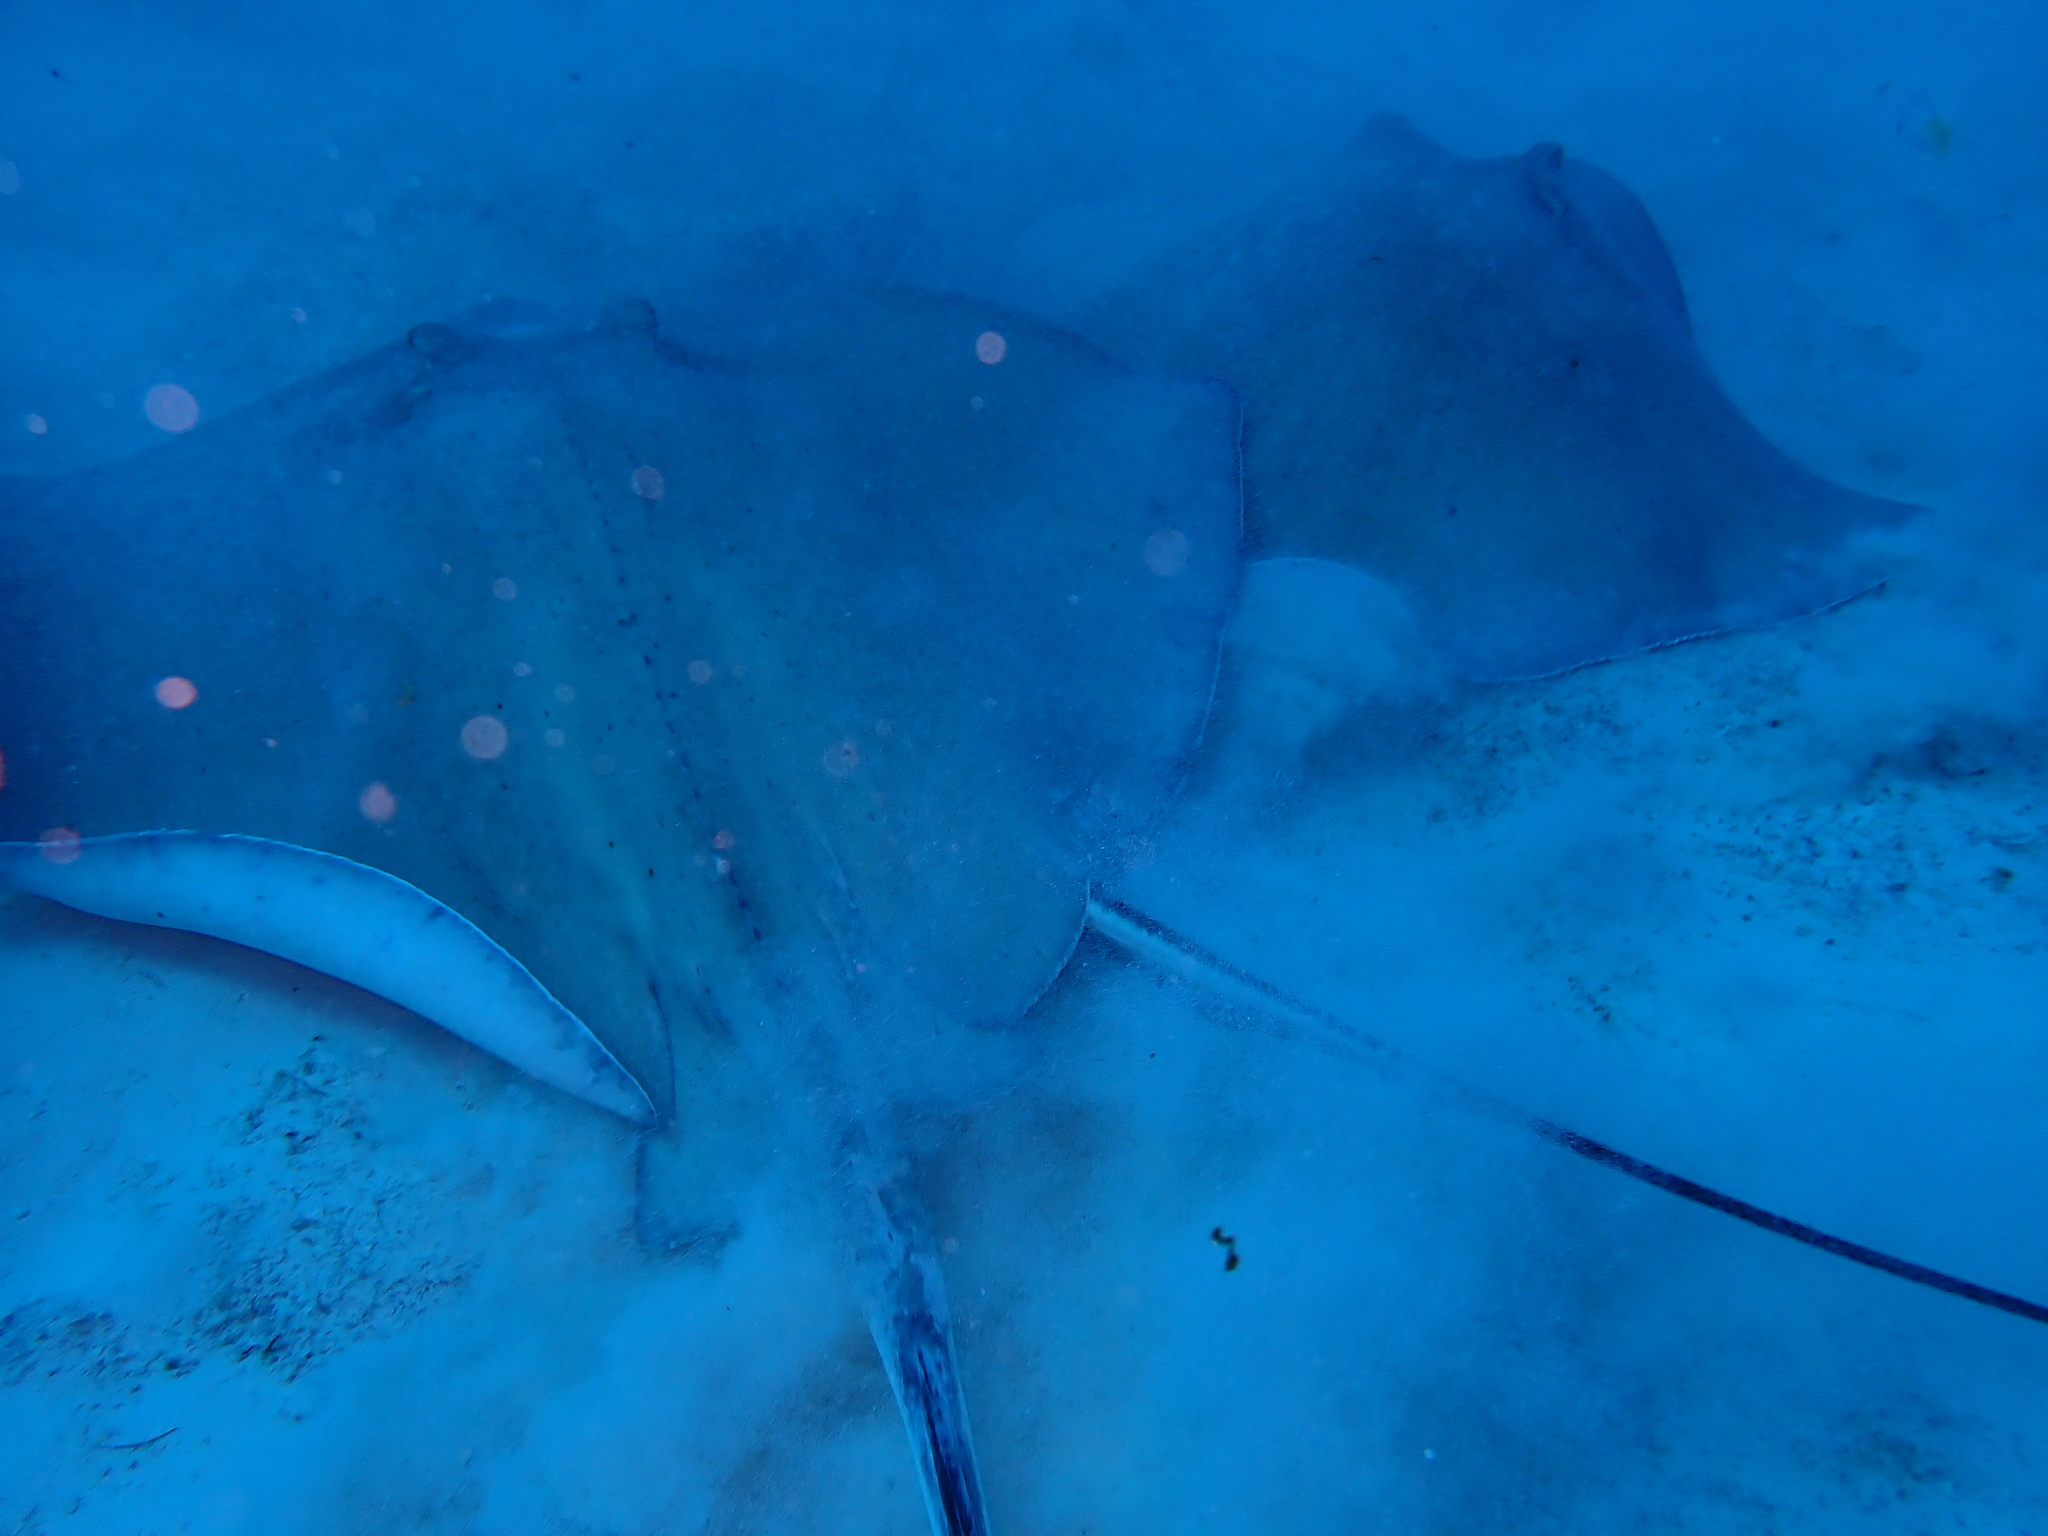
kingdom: Animalia
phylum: Chordata
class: Elasmobranchii
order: Myliobatiformes
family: Dasyatidae
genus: Hypanus
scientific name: Hypanus americanus
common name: Southern stingray
